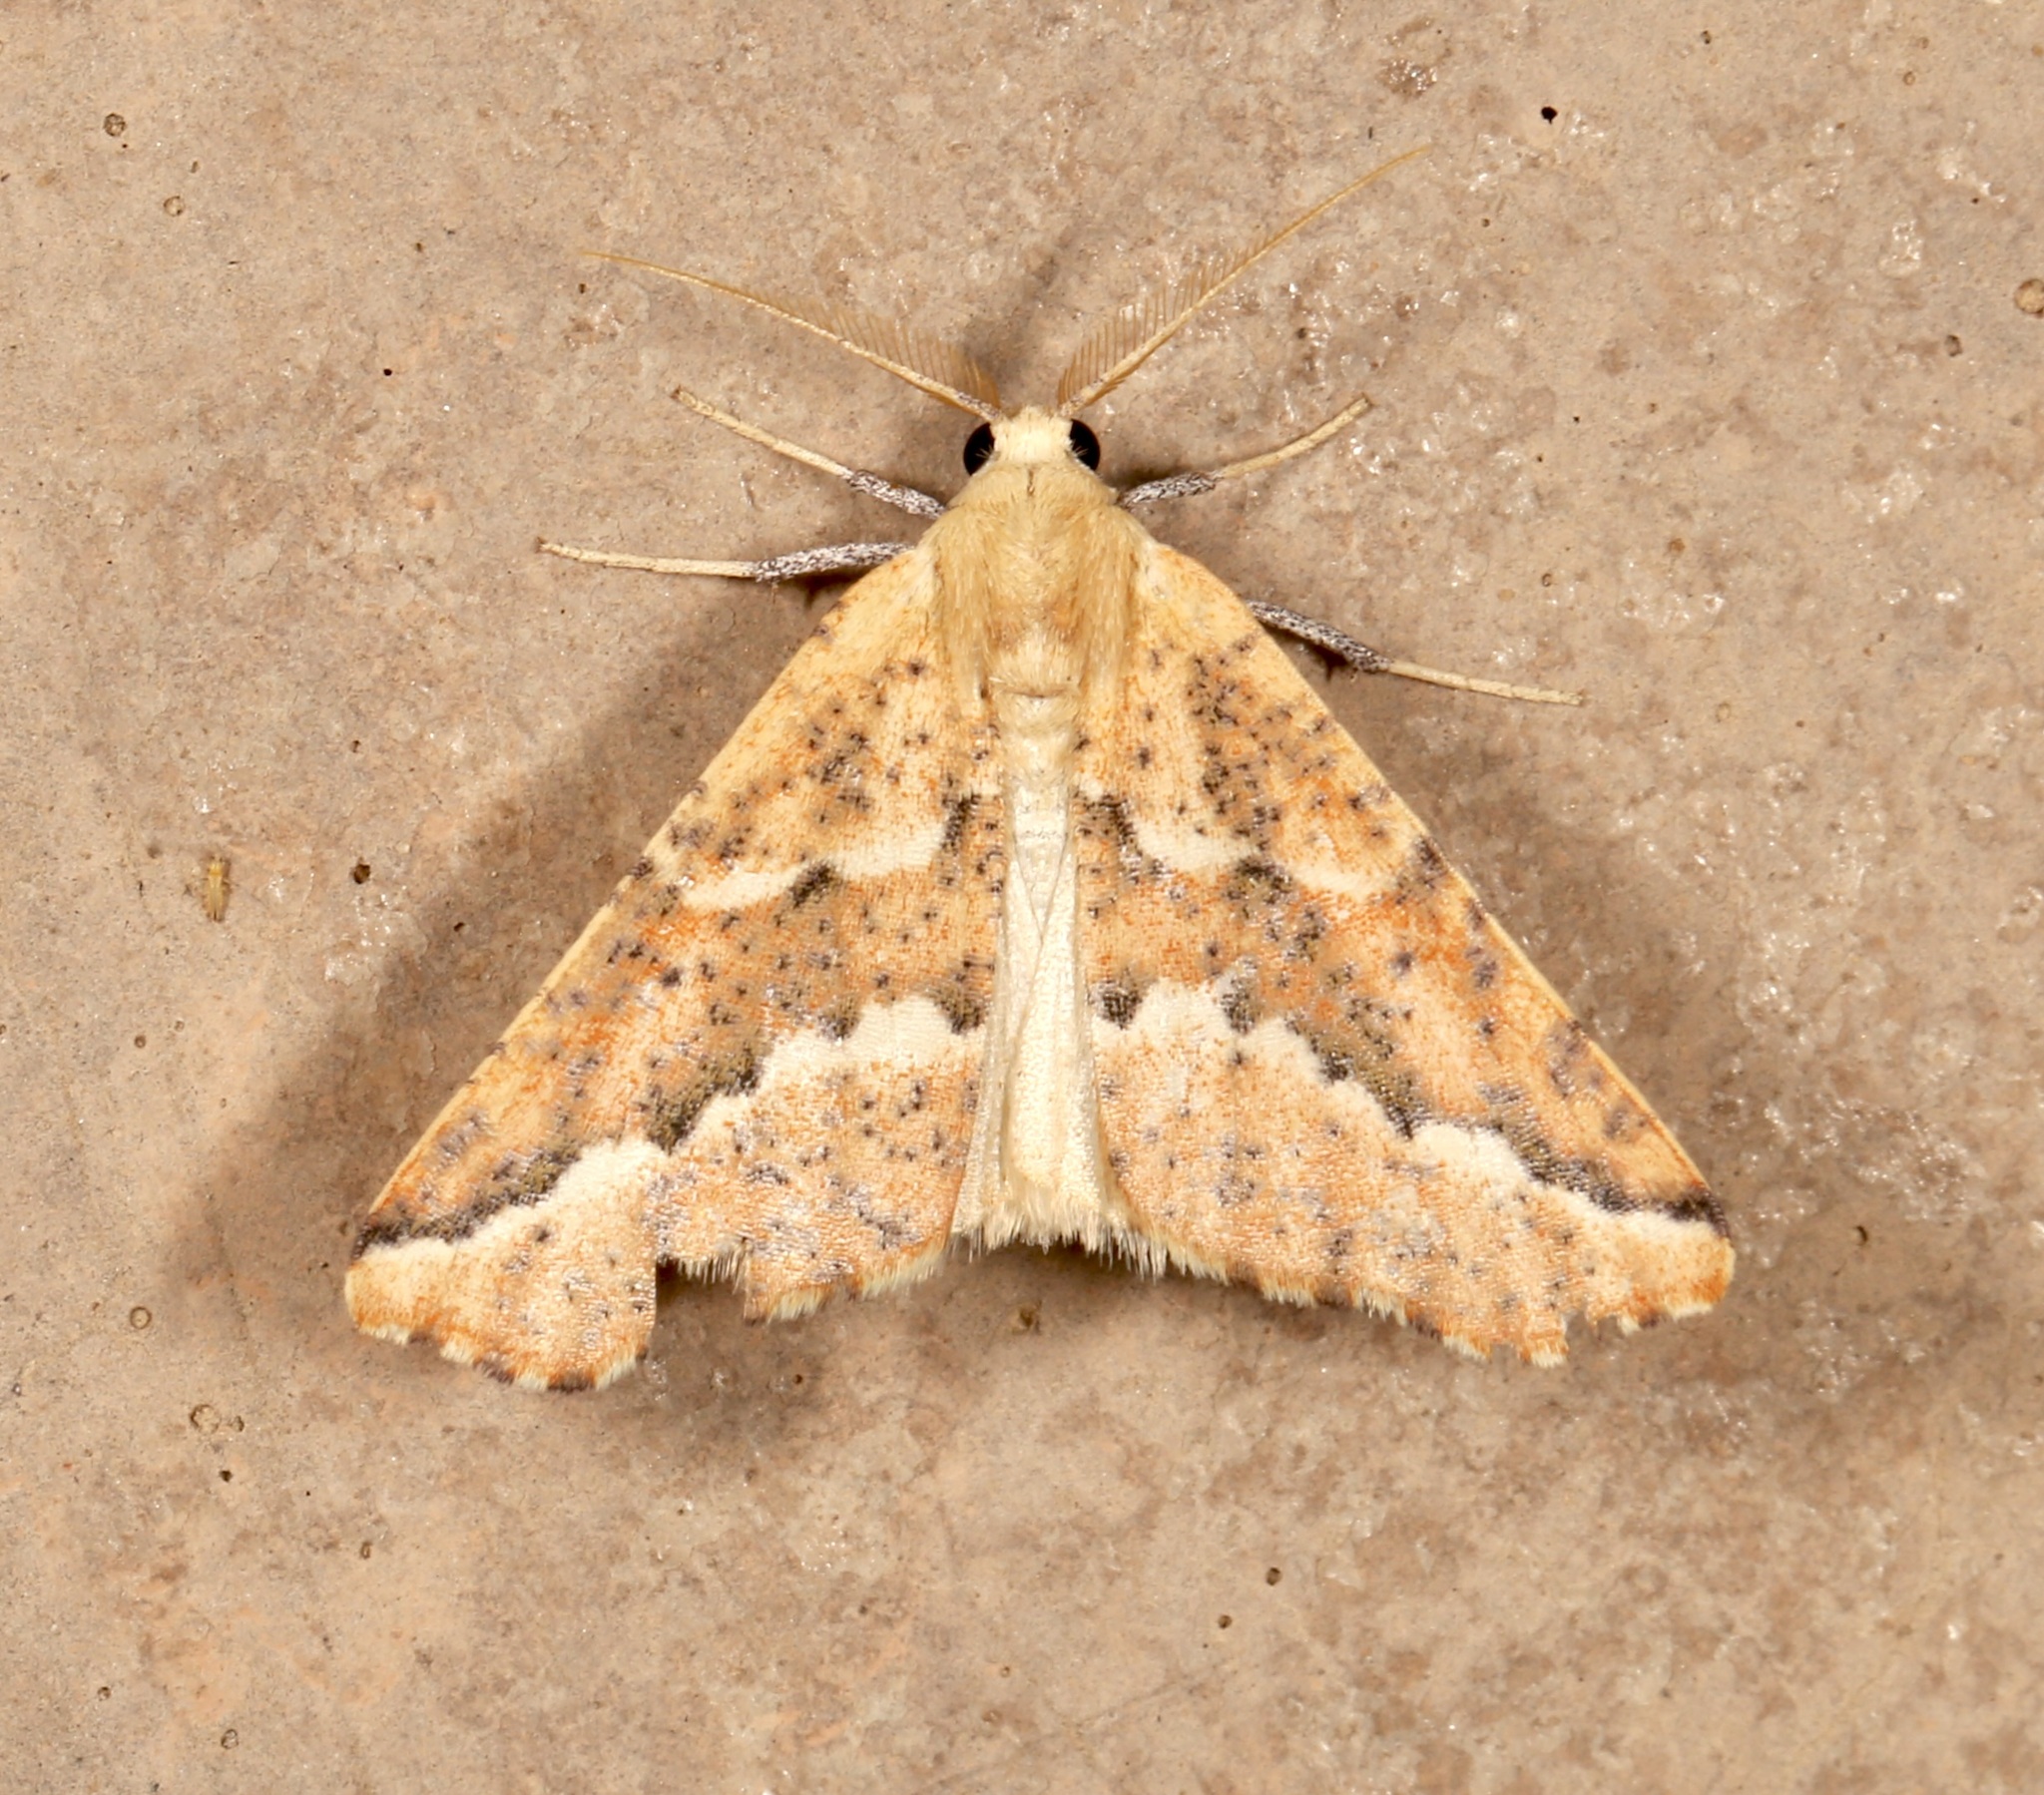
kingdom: Animalia
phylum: Arthropoda
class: Insecta
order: Lepidoptera
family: Geometridae
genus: Sicya
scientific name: Sicya morsicaria
